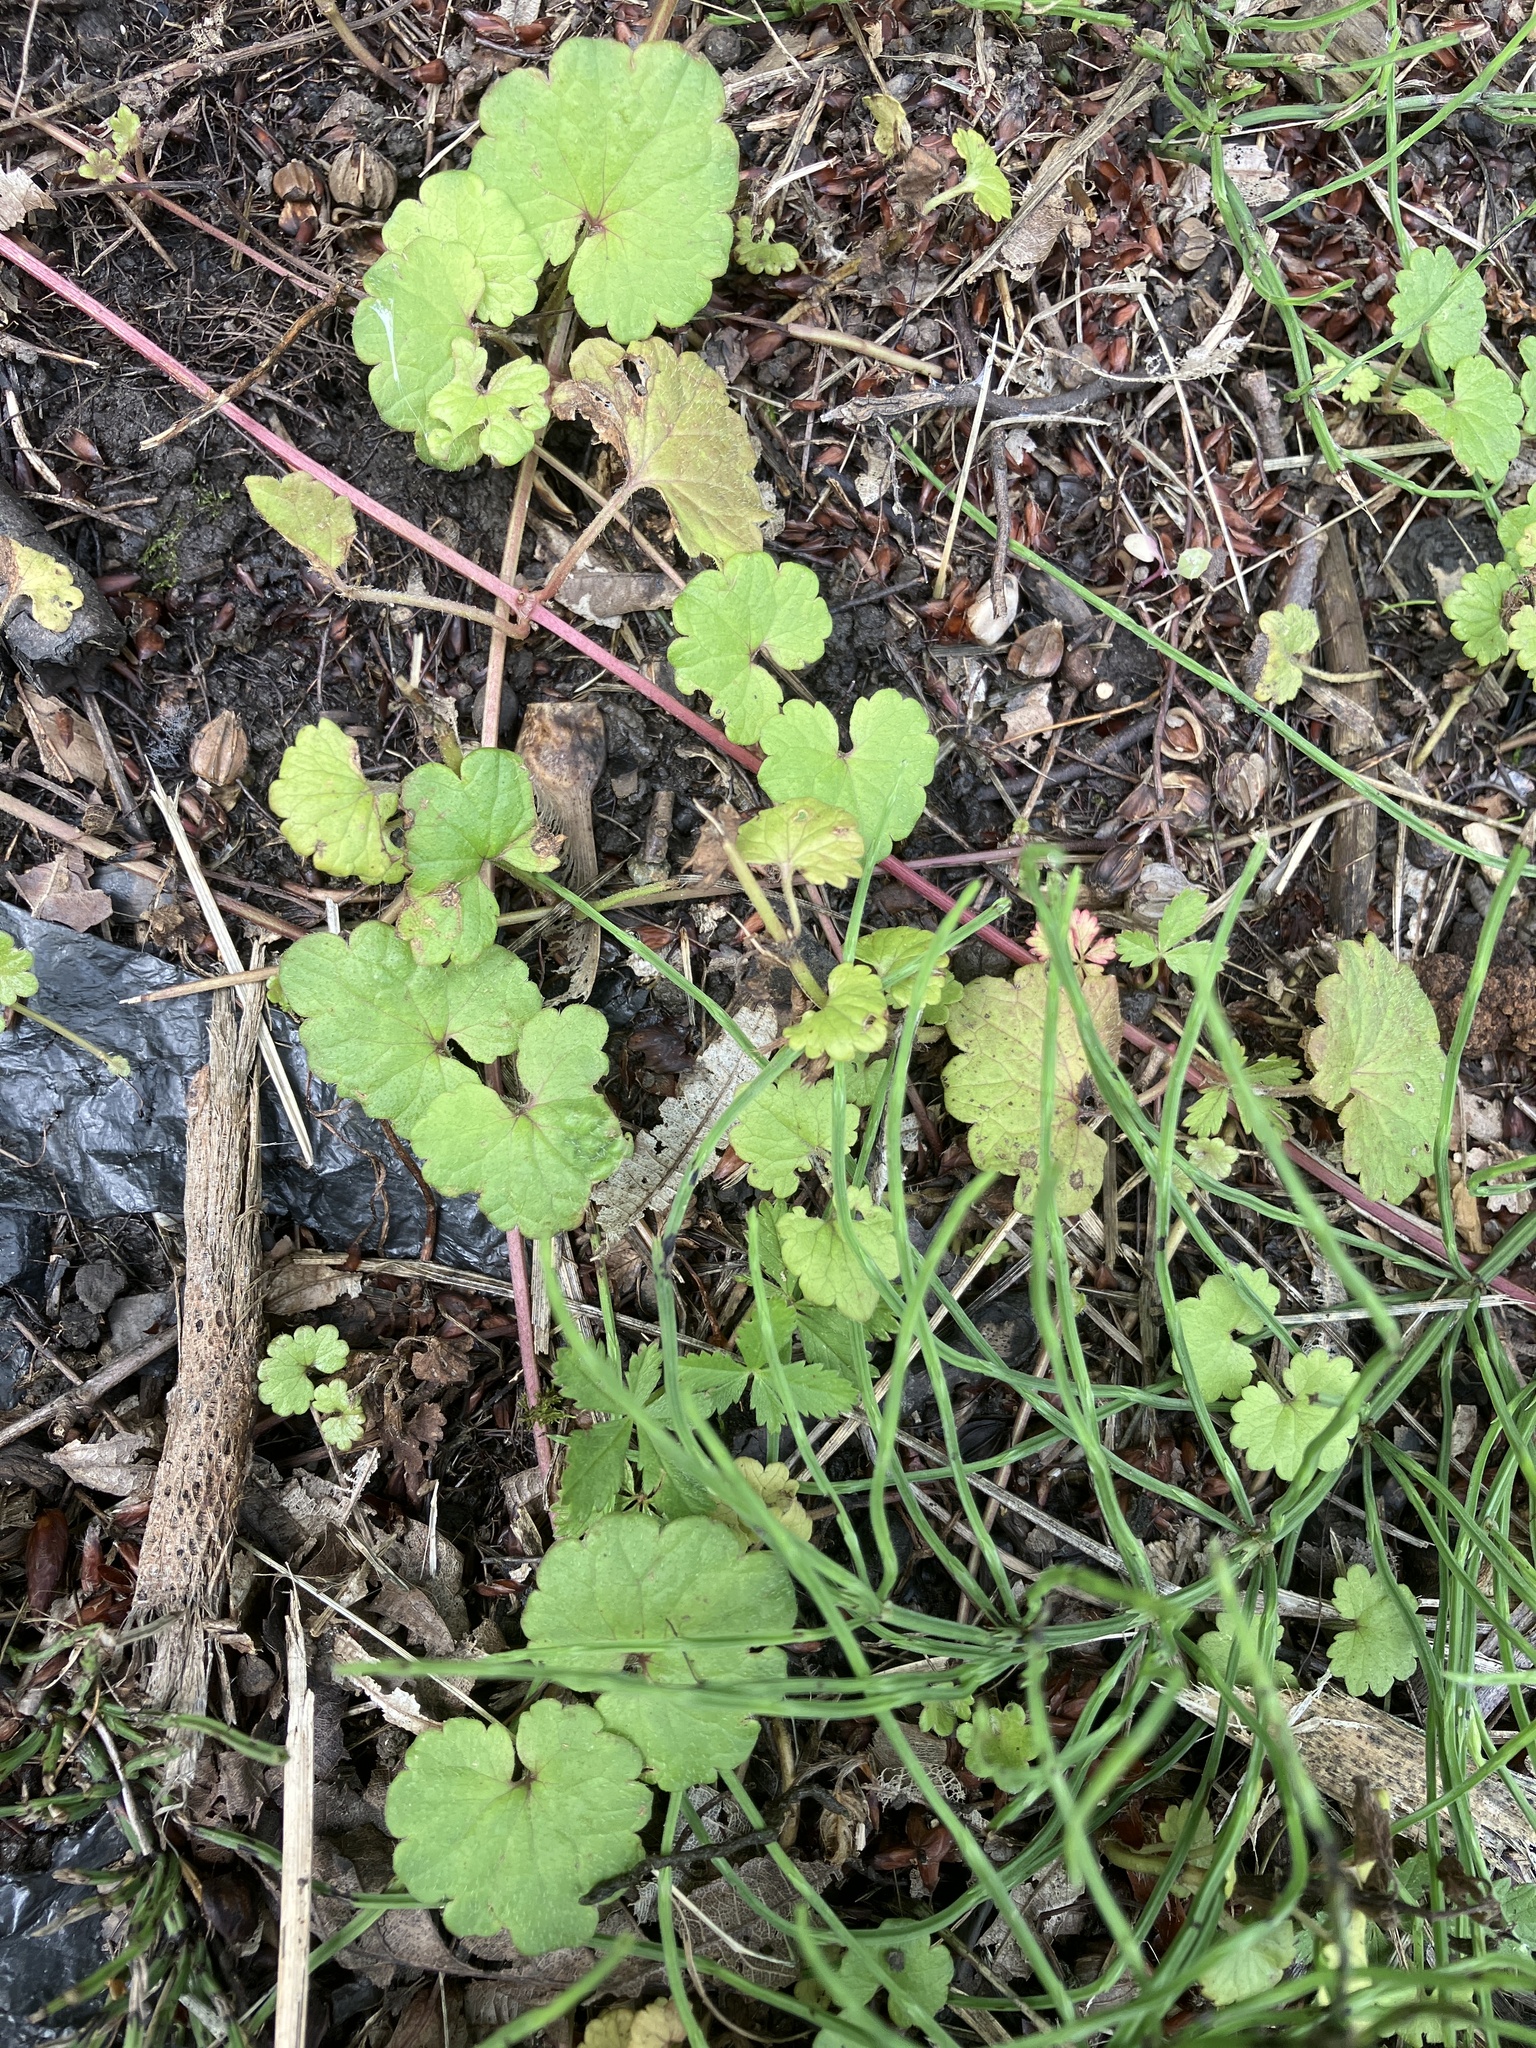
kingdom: Plantae
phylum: Tracheophyta
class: Magnoliopsida
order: Lamiales
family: Lamiaceae
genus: Glechoma
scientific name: Glechoma hederacea
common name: Ground ivy
